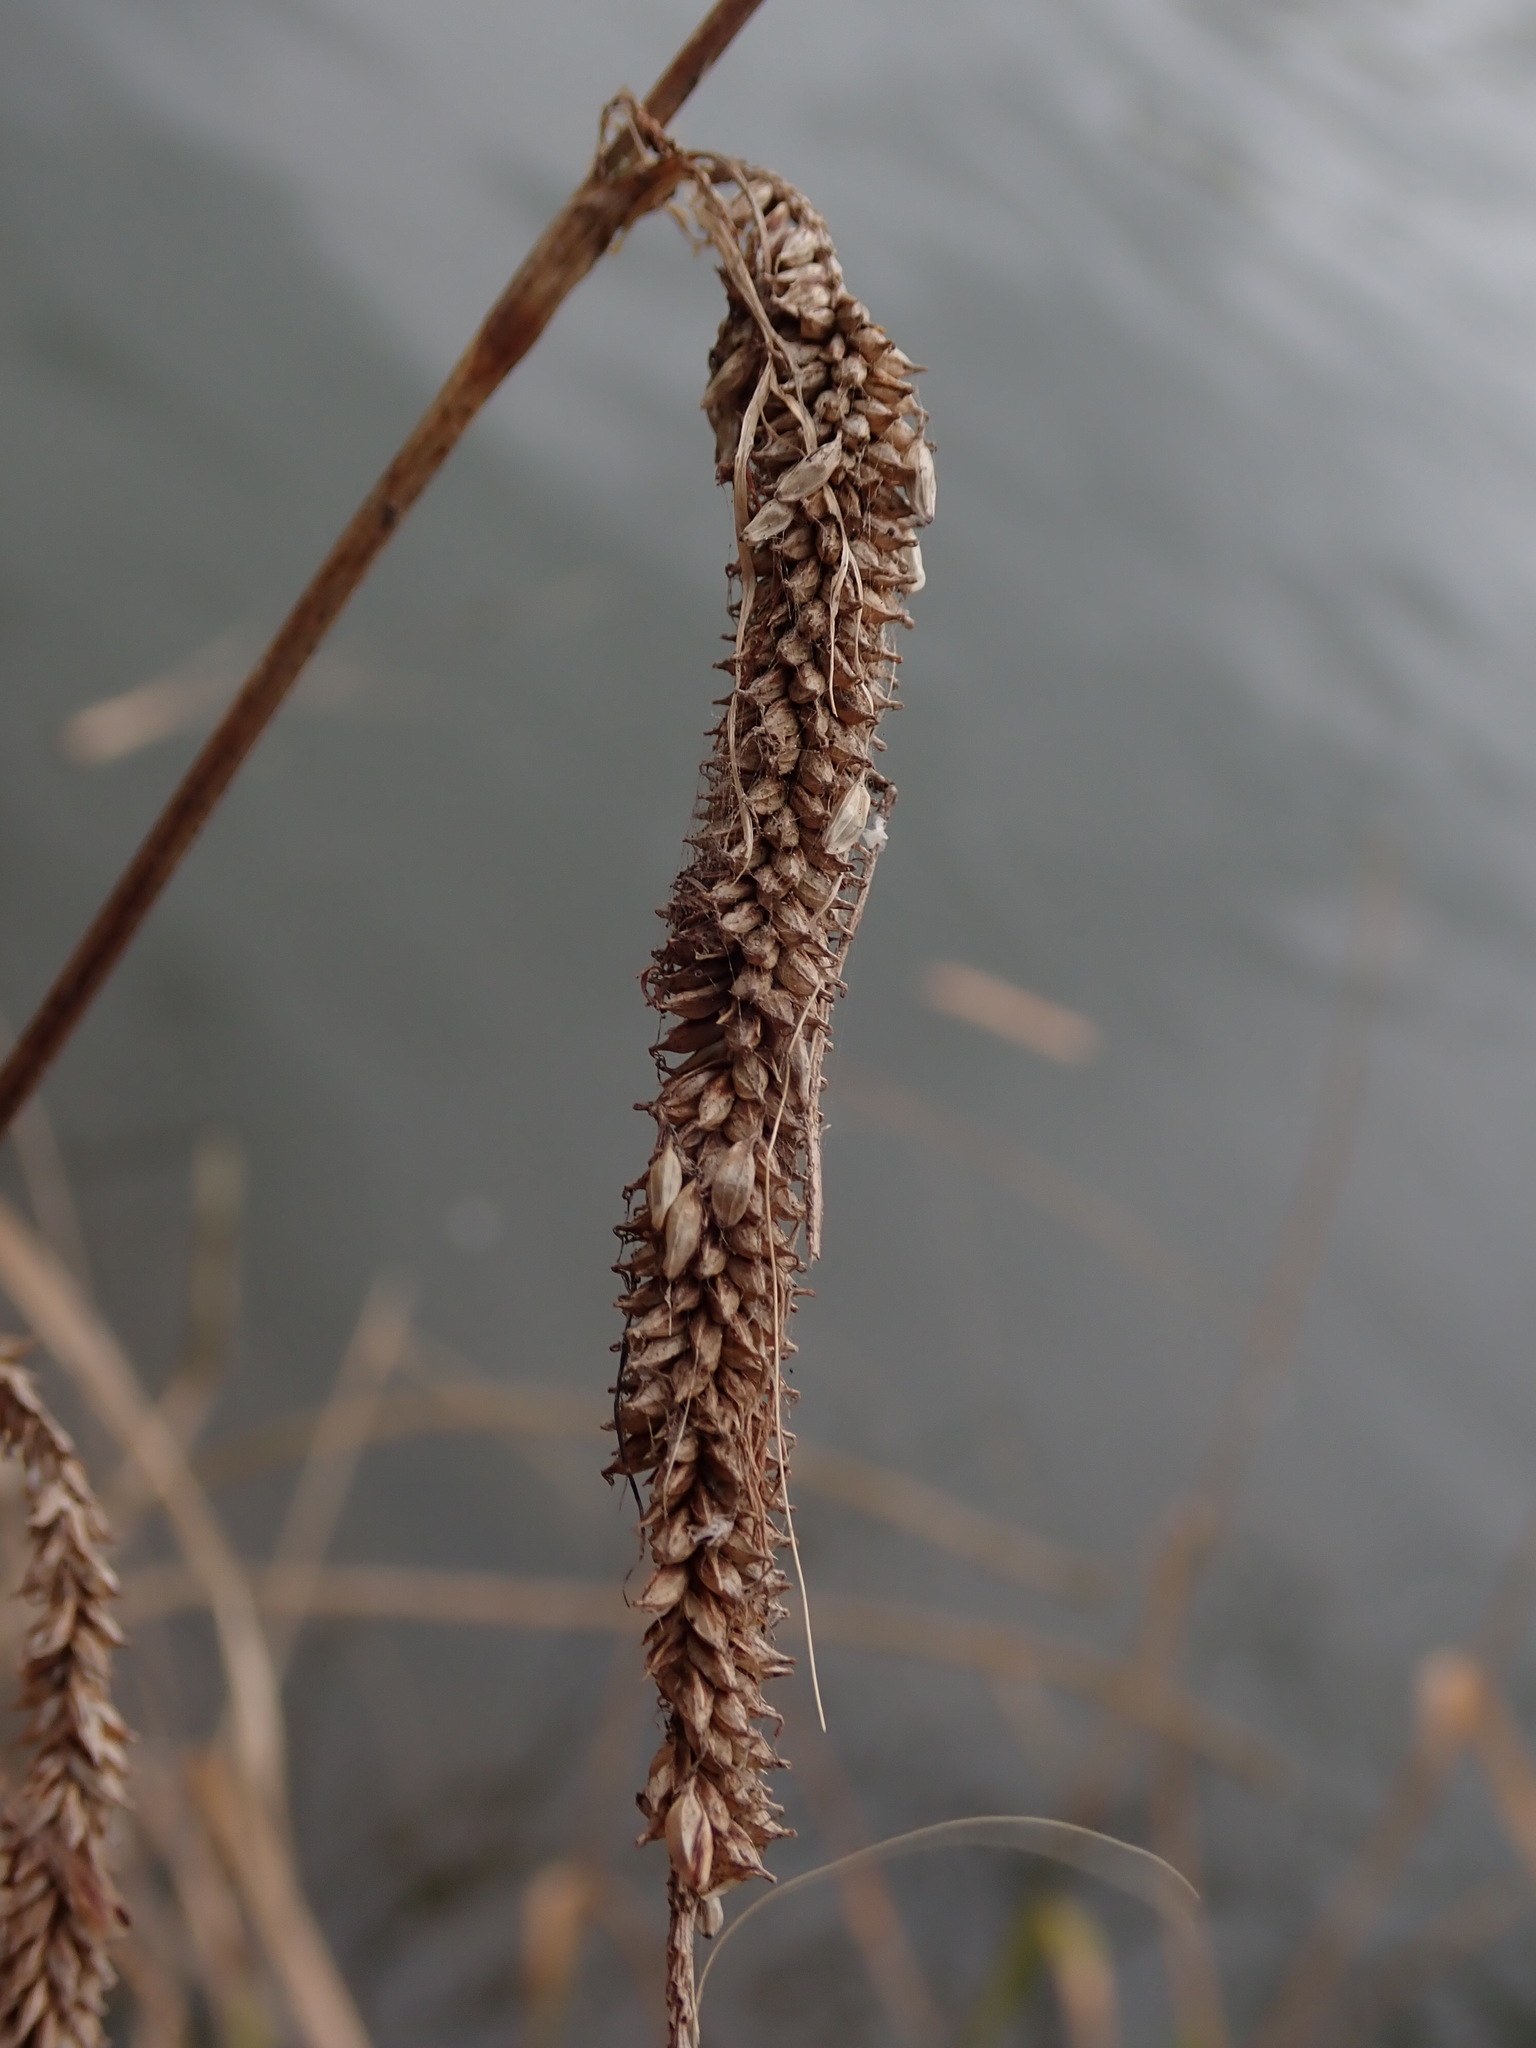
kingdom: Plantae
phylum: Tracheophyta
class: Liliopsida
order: Poales
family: Cyperaceae
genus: Carex
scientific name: Carex pendula
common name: Pendulous sedge
